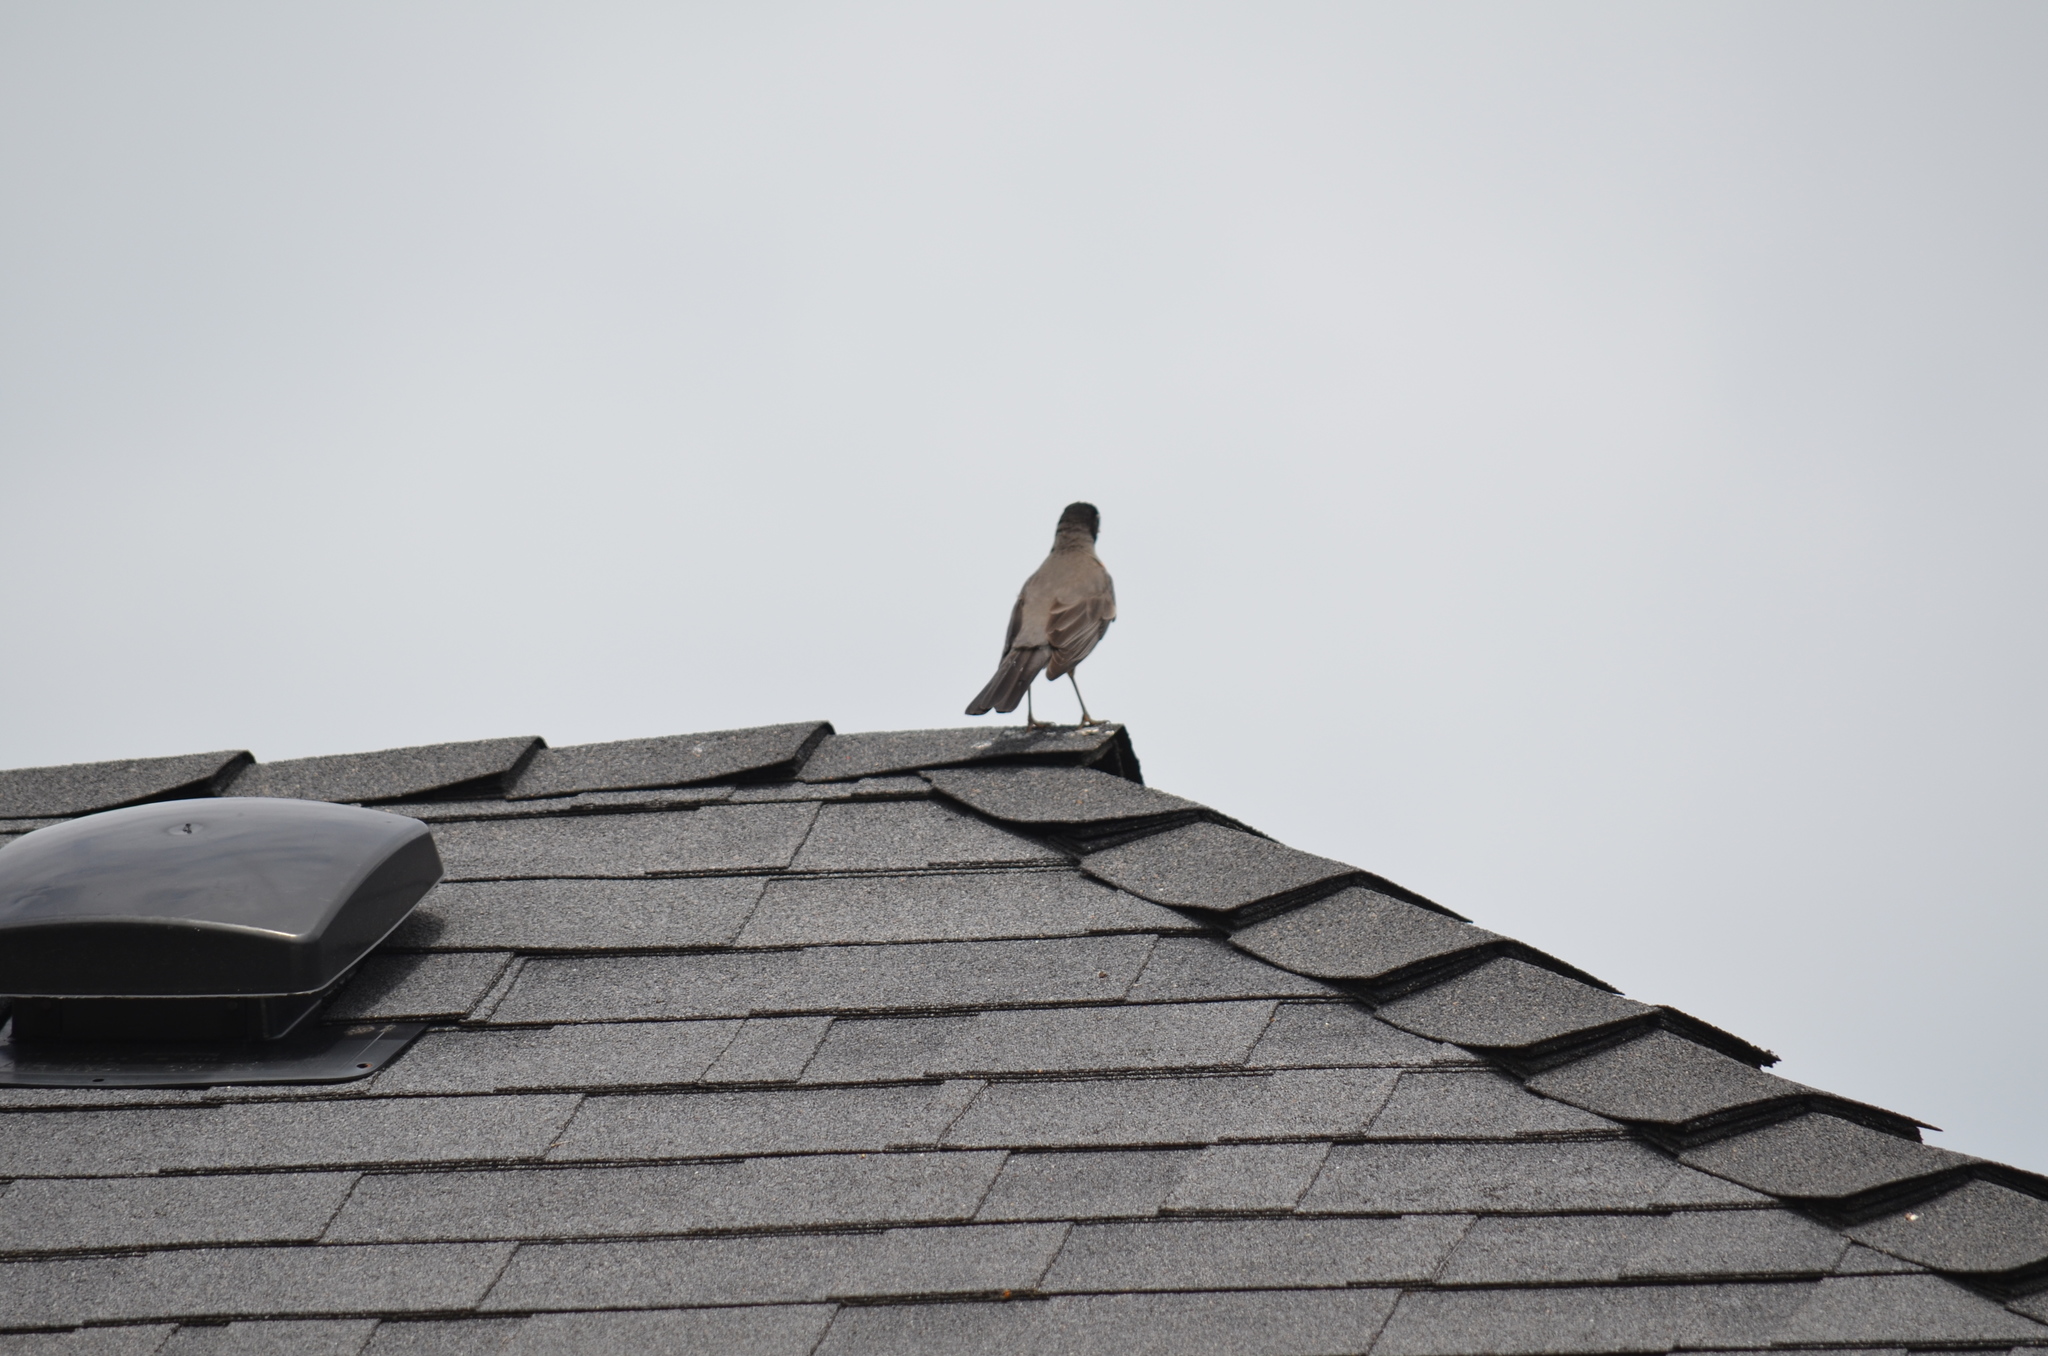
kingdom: Animalia
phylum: Chordata
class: Aves
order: Passeriformes
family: Turdidae
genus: Turdus
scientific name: Turdus migratorius
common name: American robin
